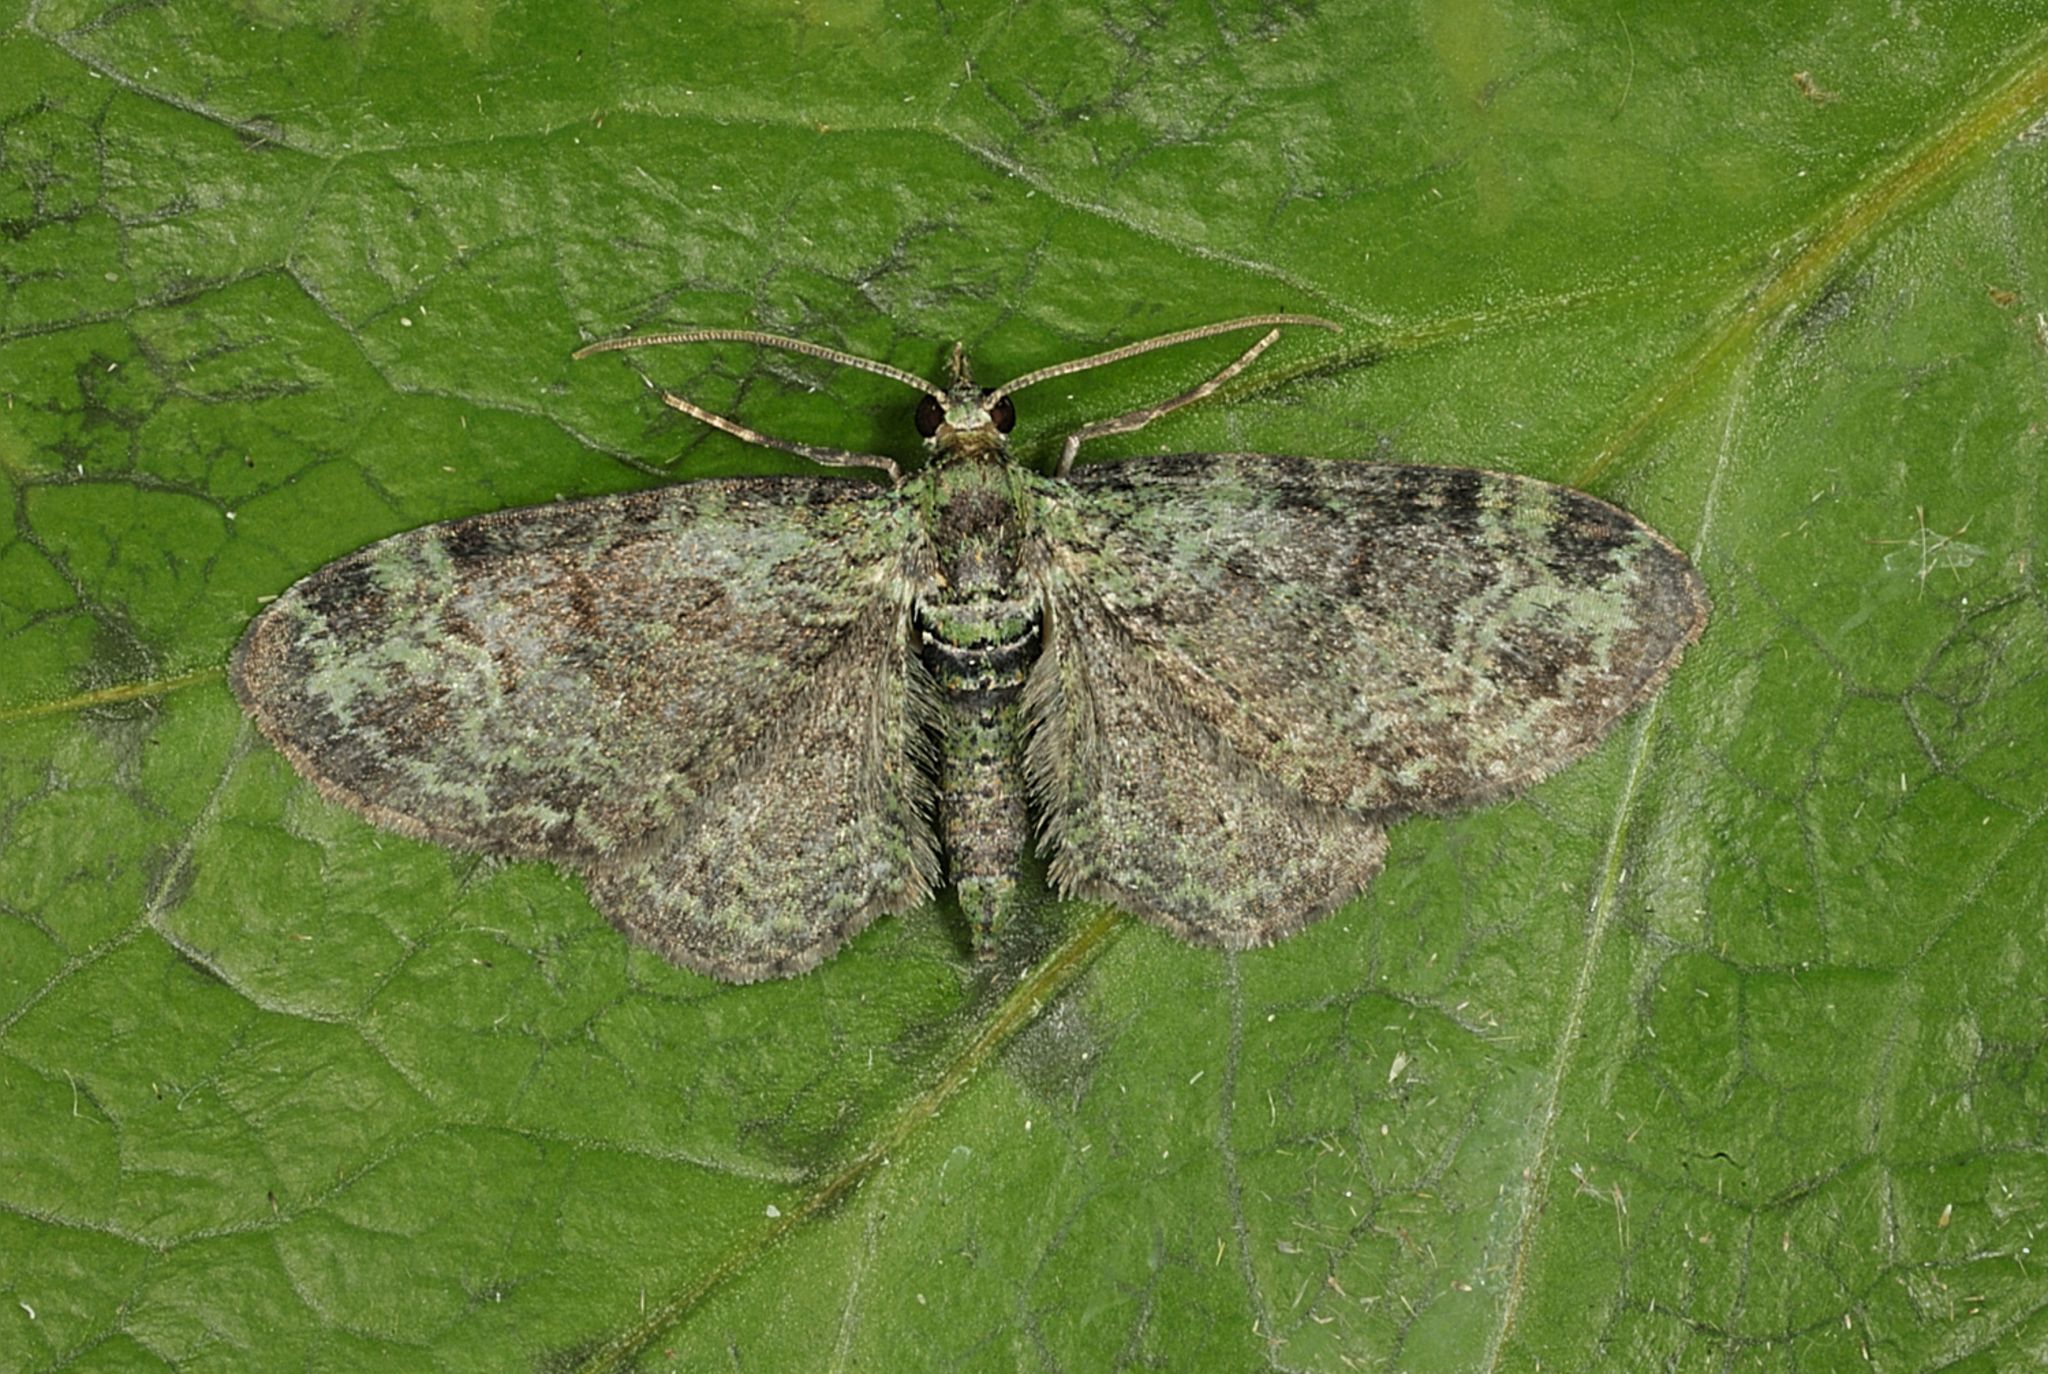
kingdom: Animalia
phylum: Arthropoda
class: Insecta
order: Lepidoptera
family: Geometridae
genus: Pasiphila
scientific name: Pasiphila rectangulata
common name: Green pug
